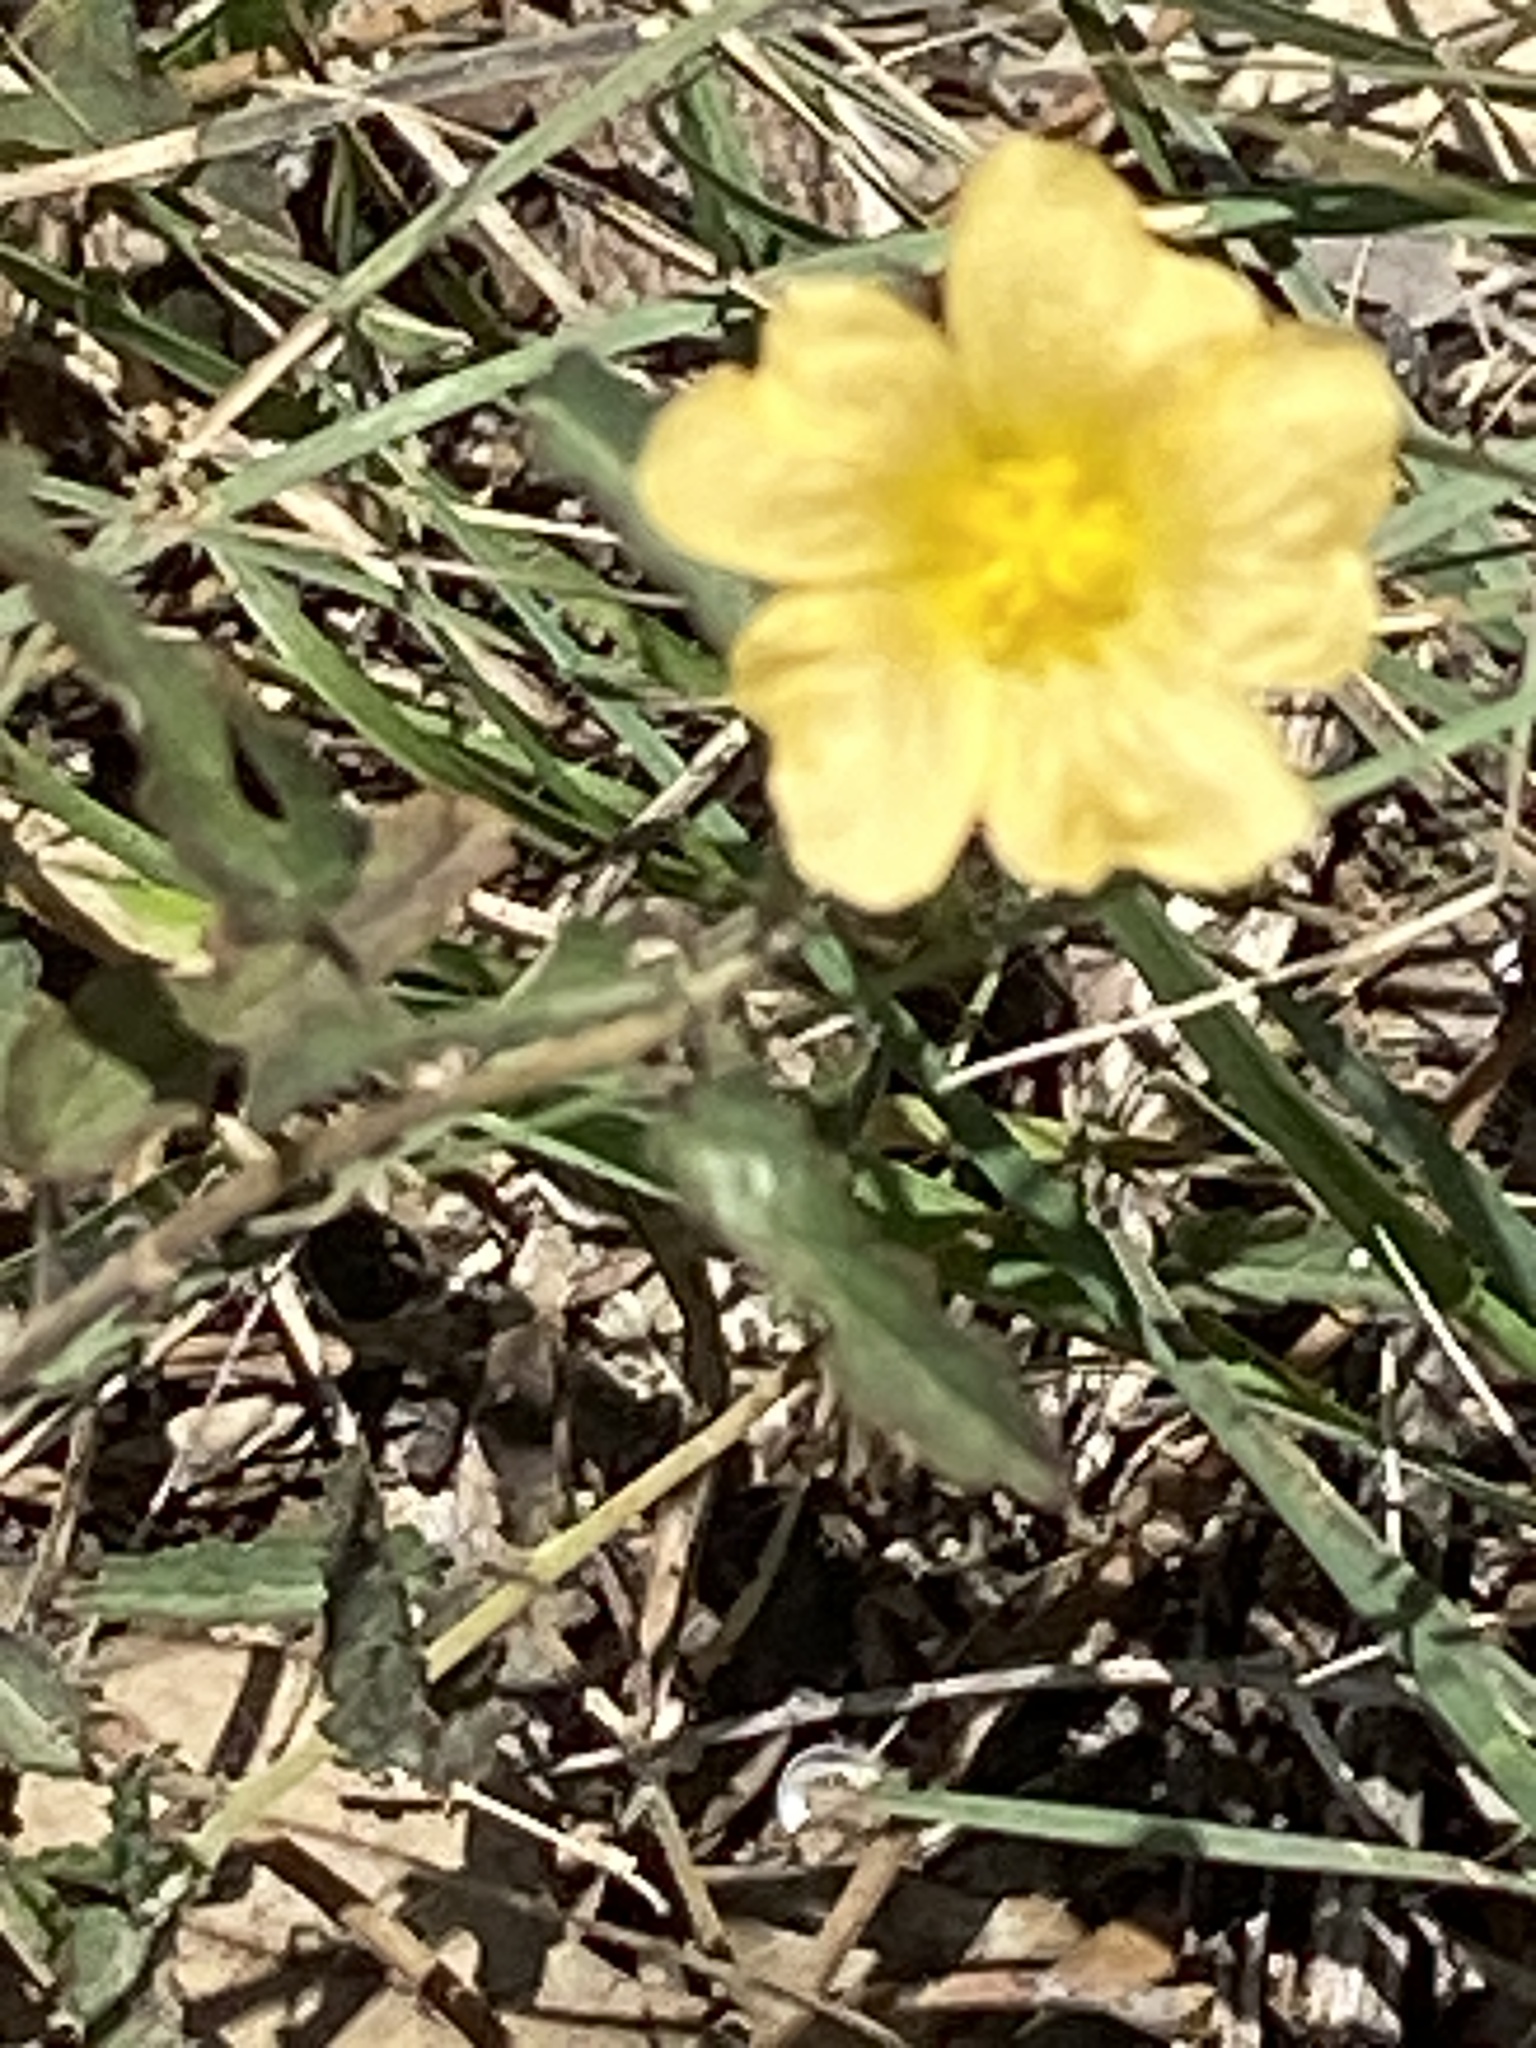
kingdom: Plantae
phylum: Tracheophyta
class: Magnoliopsida
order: Malvales
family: Malvaceae
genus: Sida
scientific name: Sida abutilifolia
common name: Spreading fanpetals
